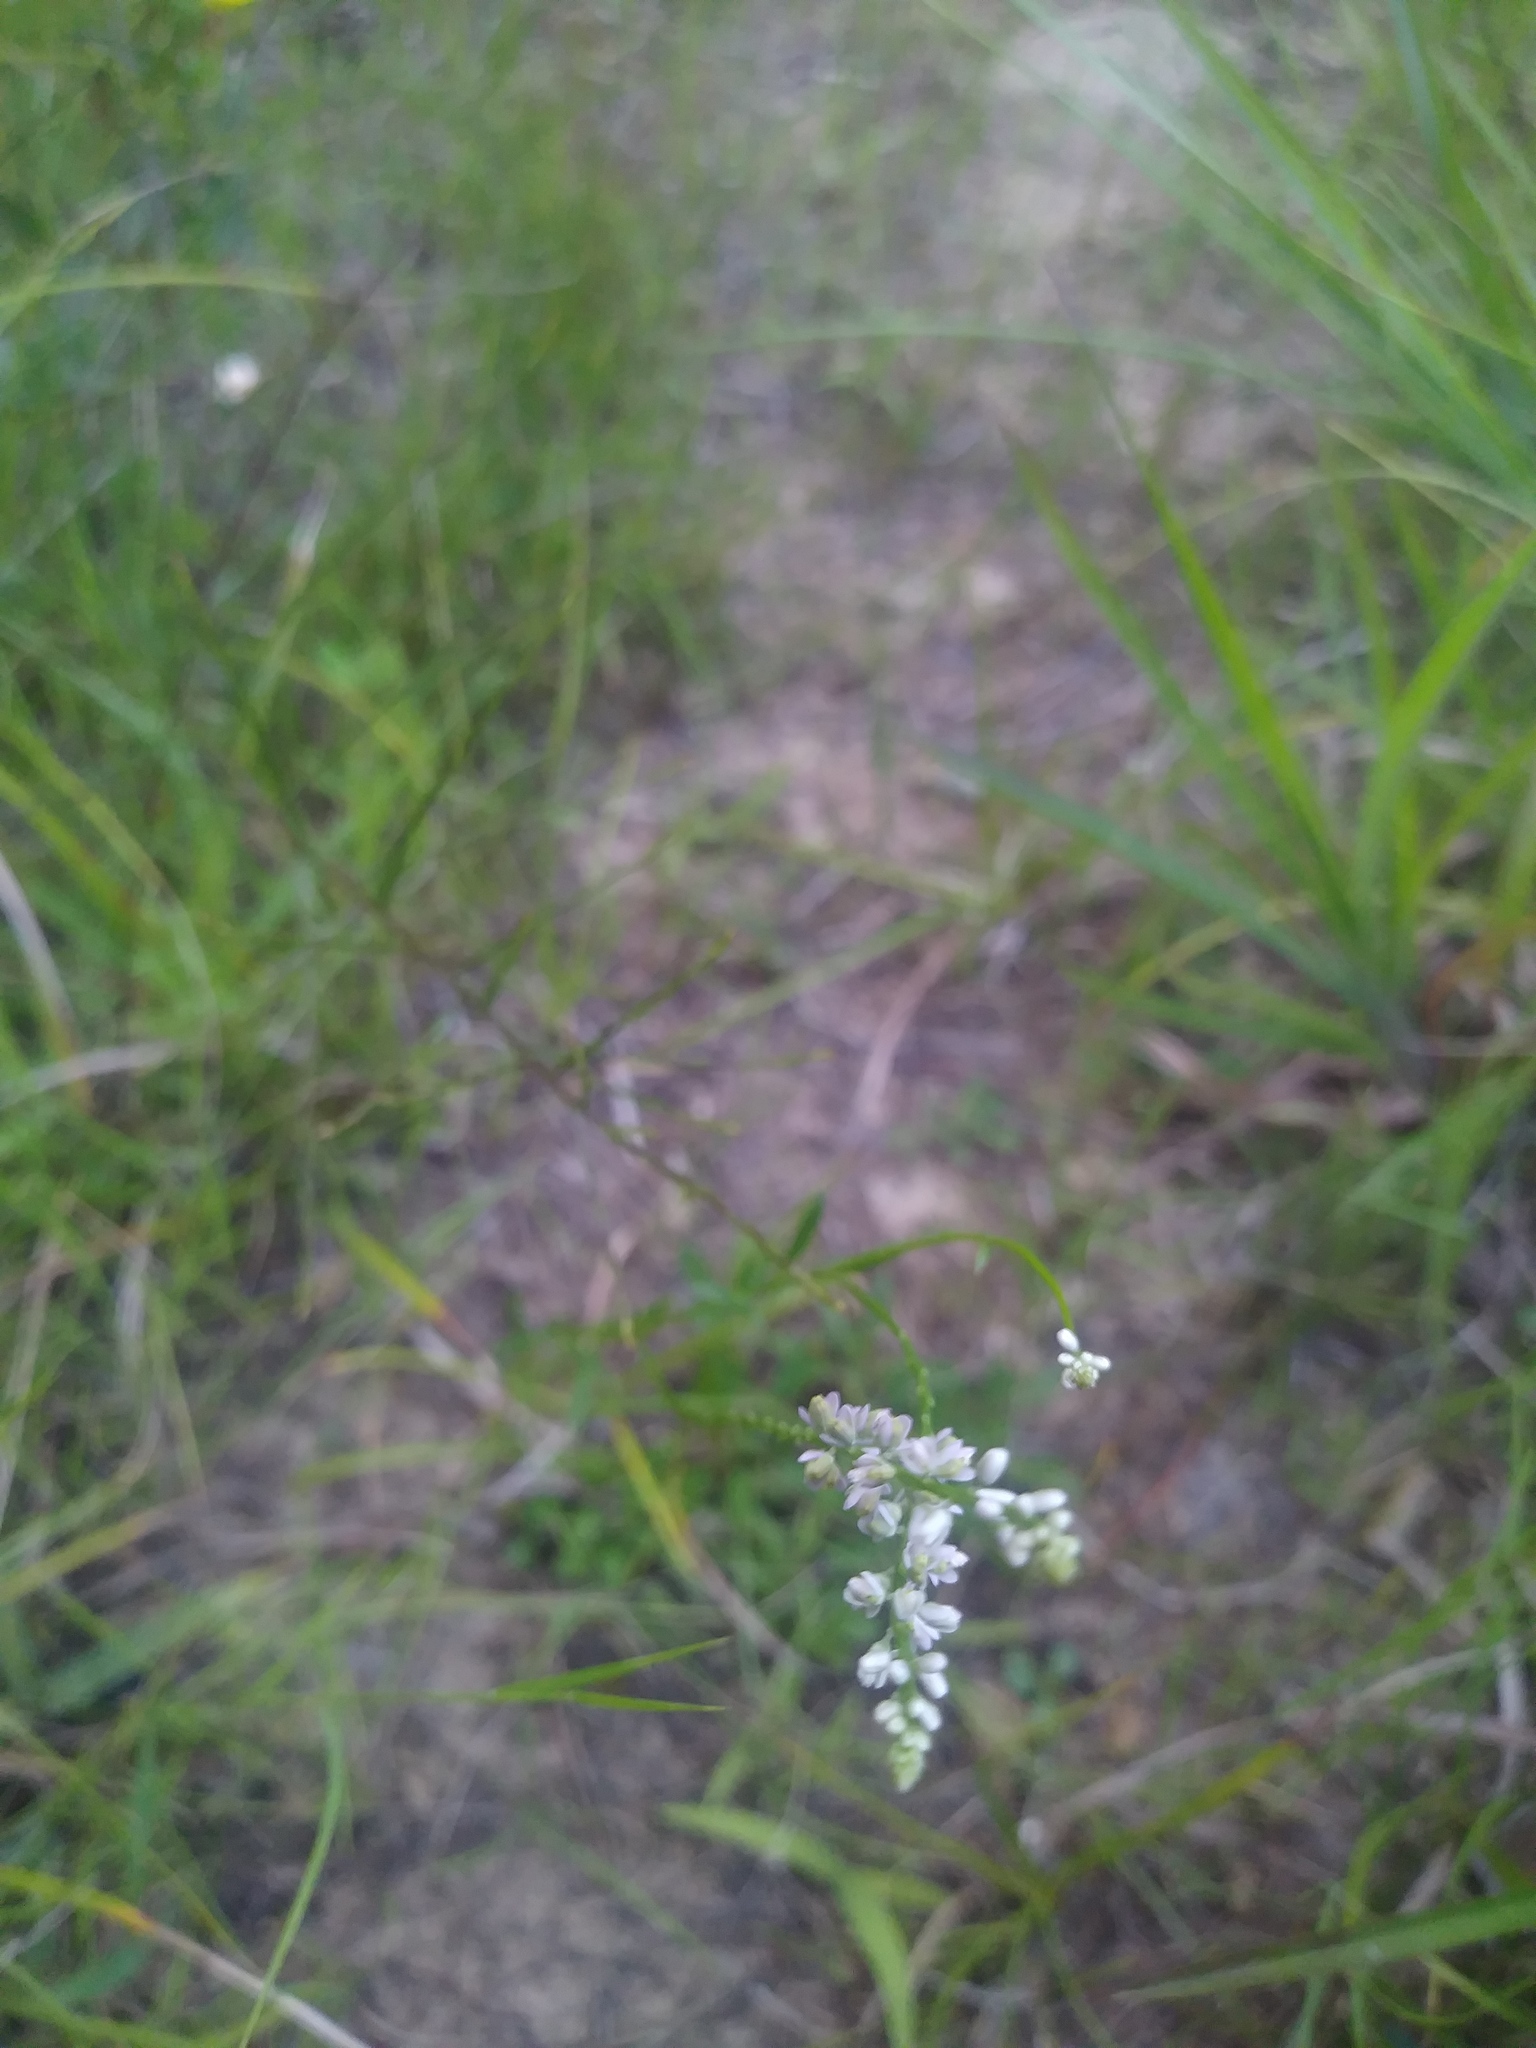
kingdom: Plantae
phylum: Tracheophyta
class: Magnoliopsida
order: Fabales
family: Polygalaceae
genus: Polygala
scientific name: Polygala verticillata
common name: Whorl milkwort
